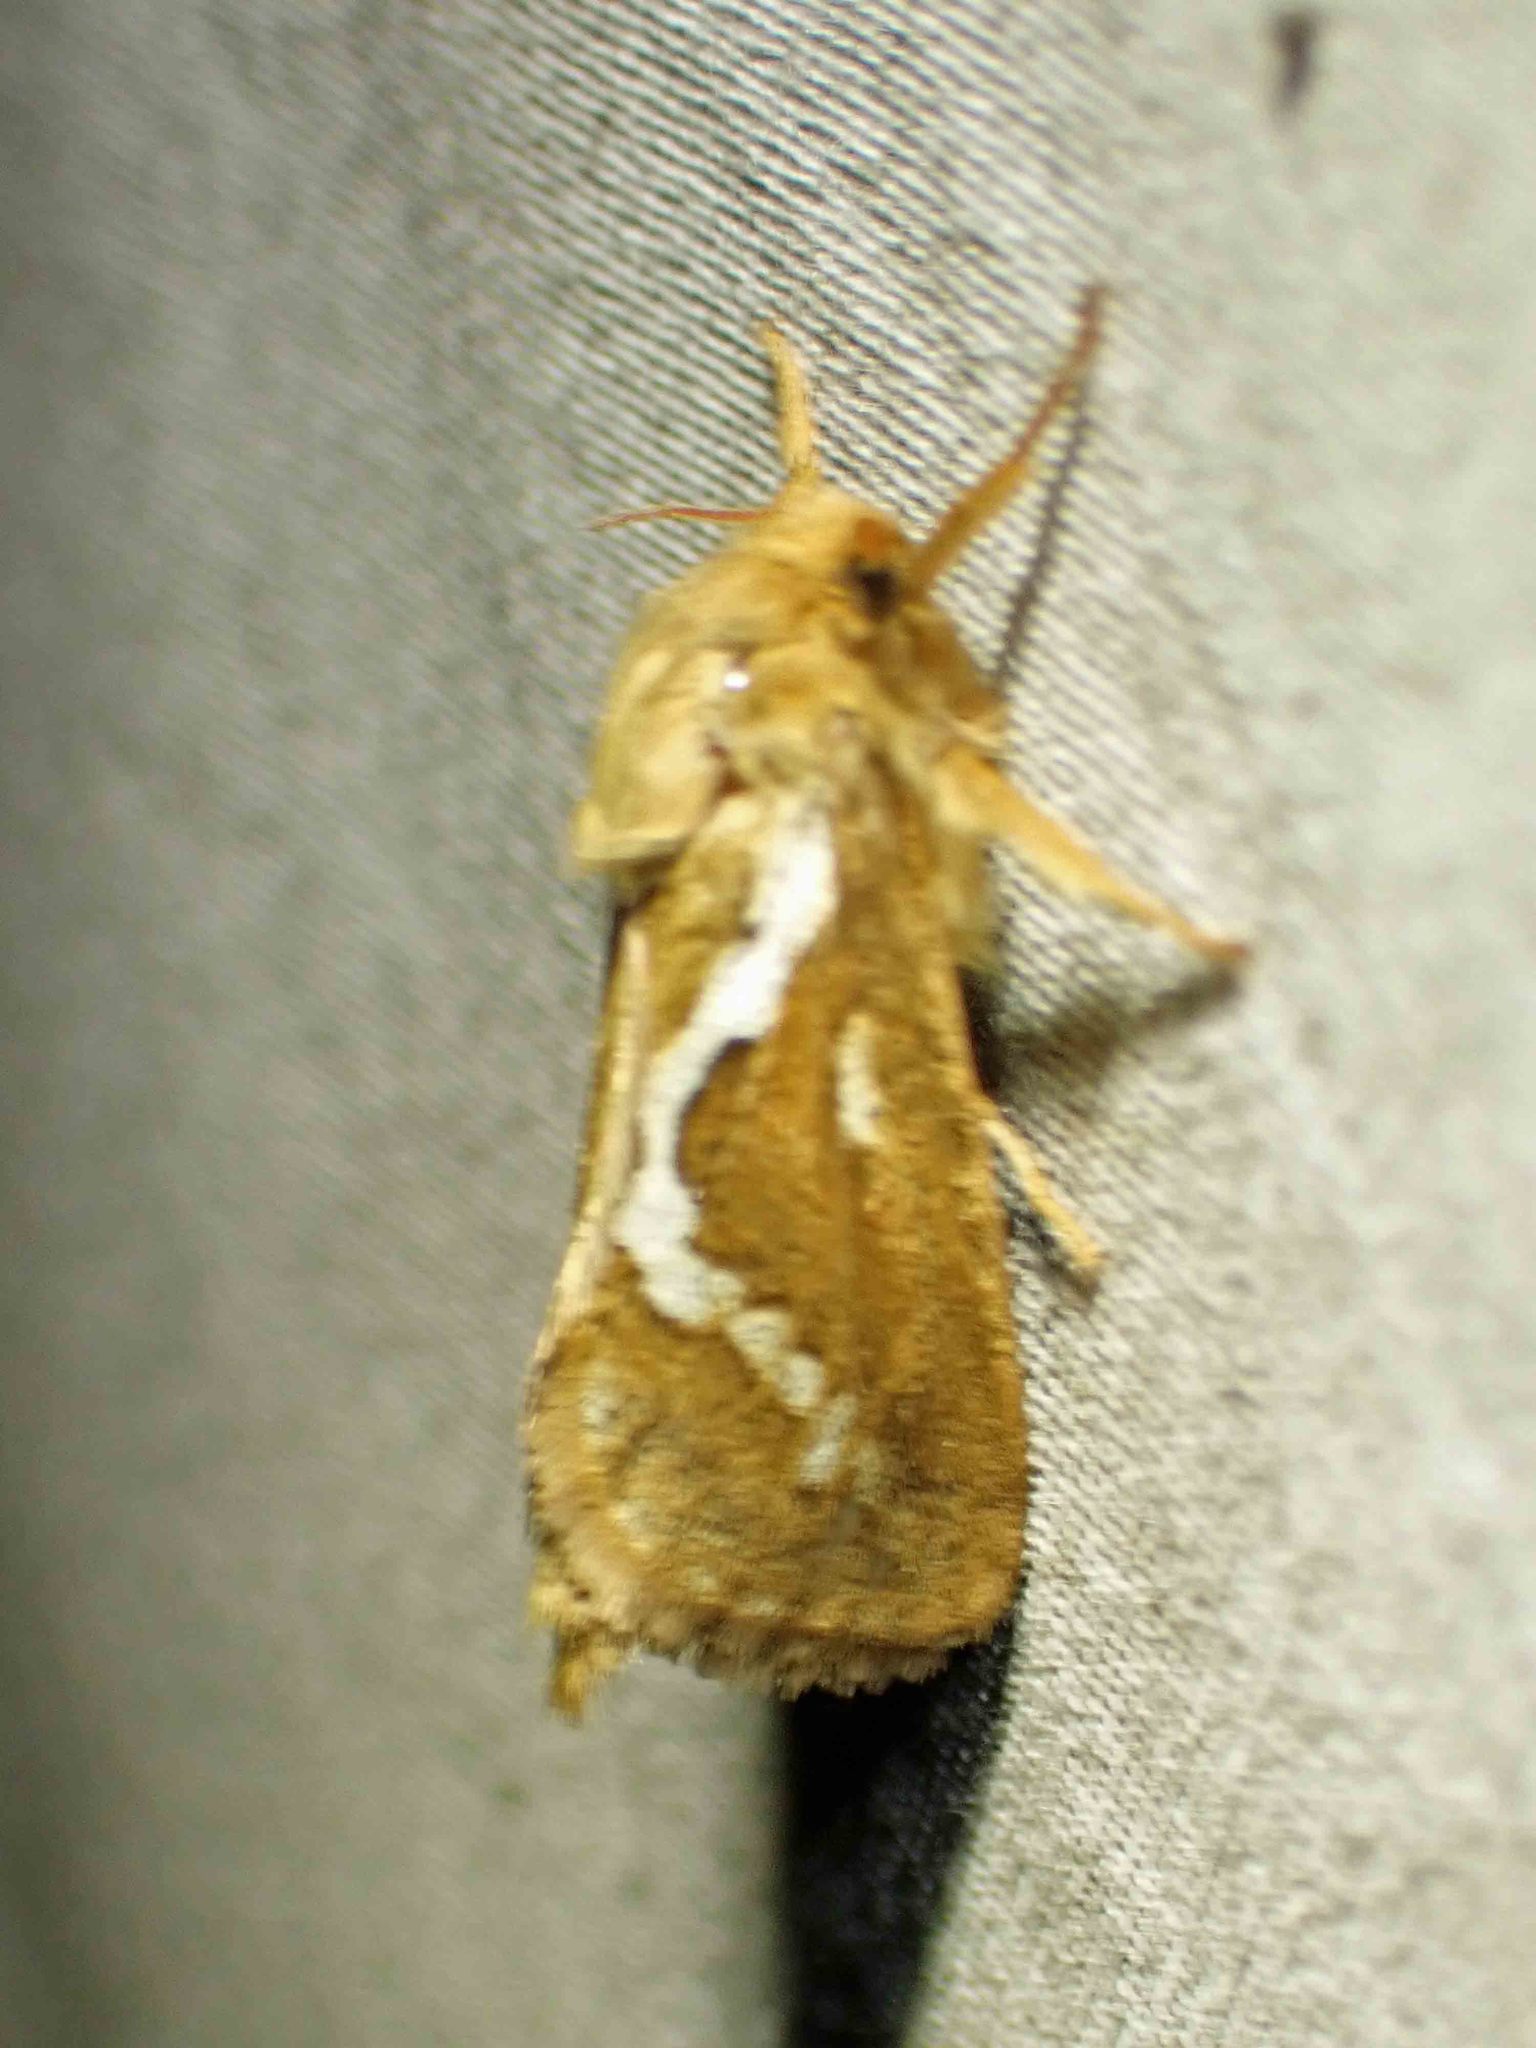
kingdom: Animalia
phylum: Arthropoda
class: Insecta
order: Lepidoptera
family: Hepialidae
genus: Korscheltellus
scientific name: Korscheltellus lupulina
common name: Common swift
